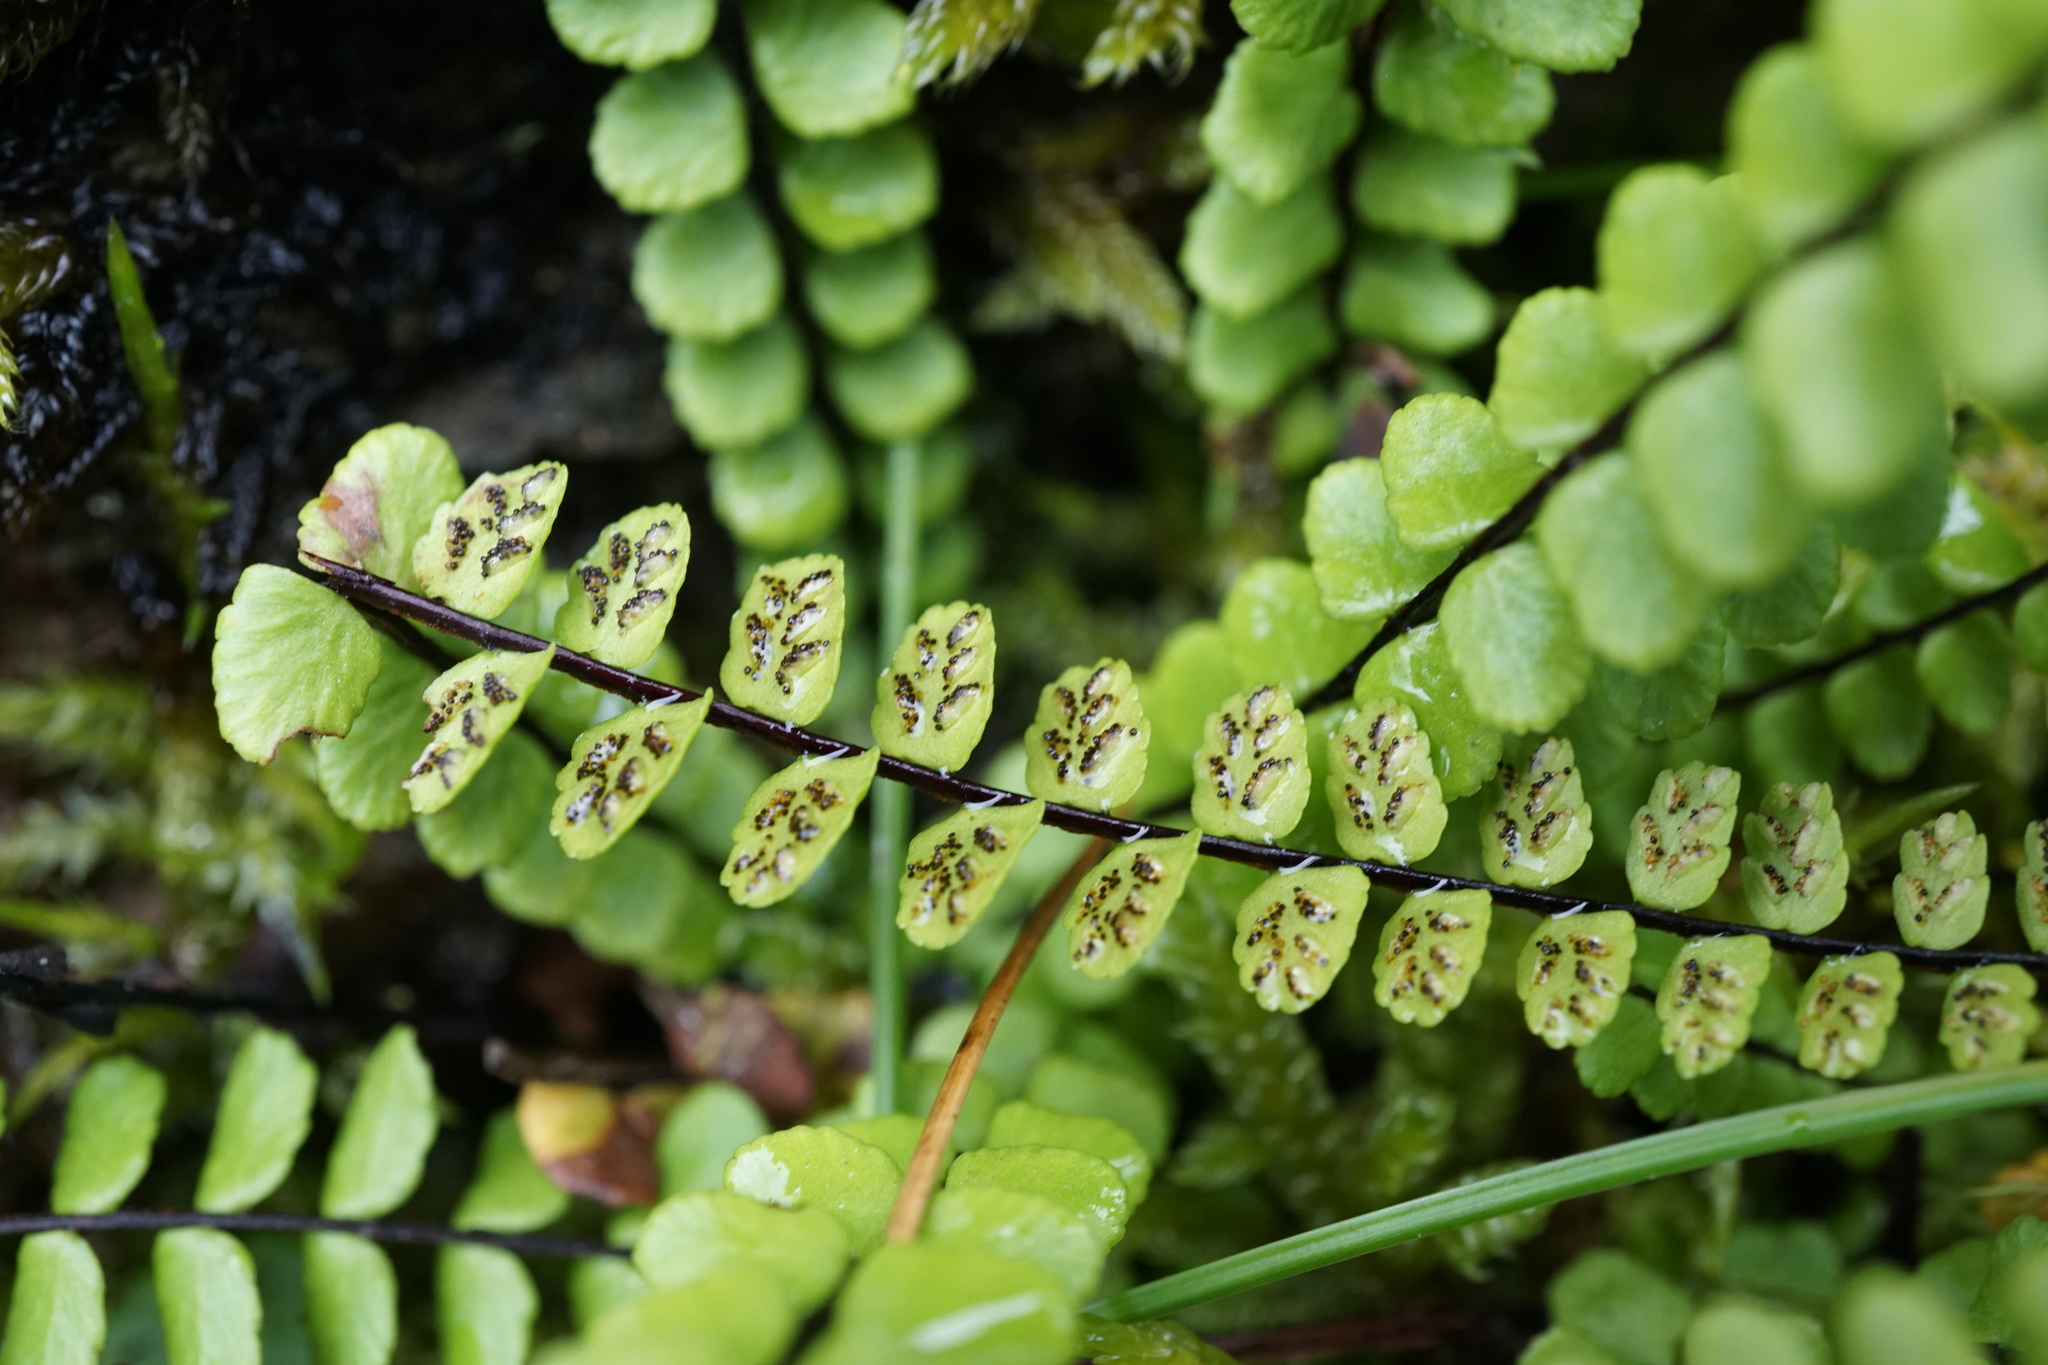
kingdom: Plantae
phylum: Tracheophyta
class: Polypodiopsida
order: Polypodiales
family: Aspleniaceae
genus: Asplenium
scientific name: Asplenium trichomanes
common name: Maidenhair spleenwort
